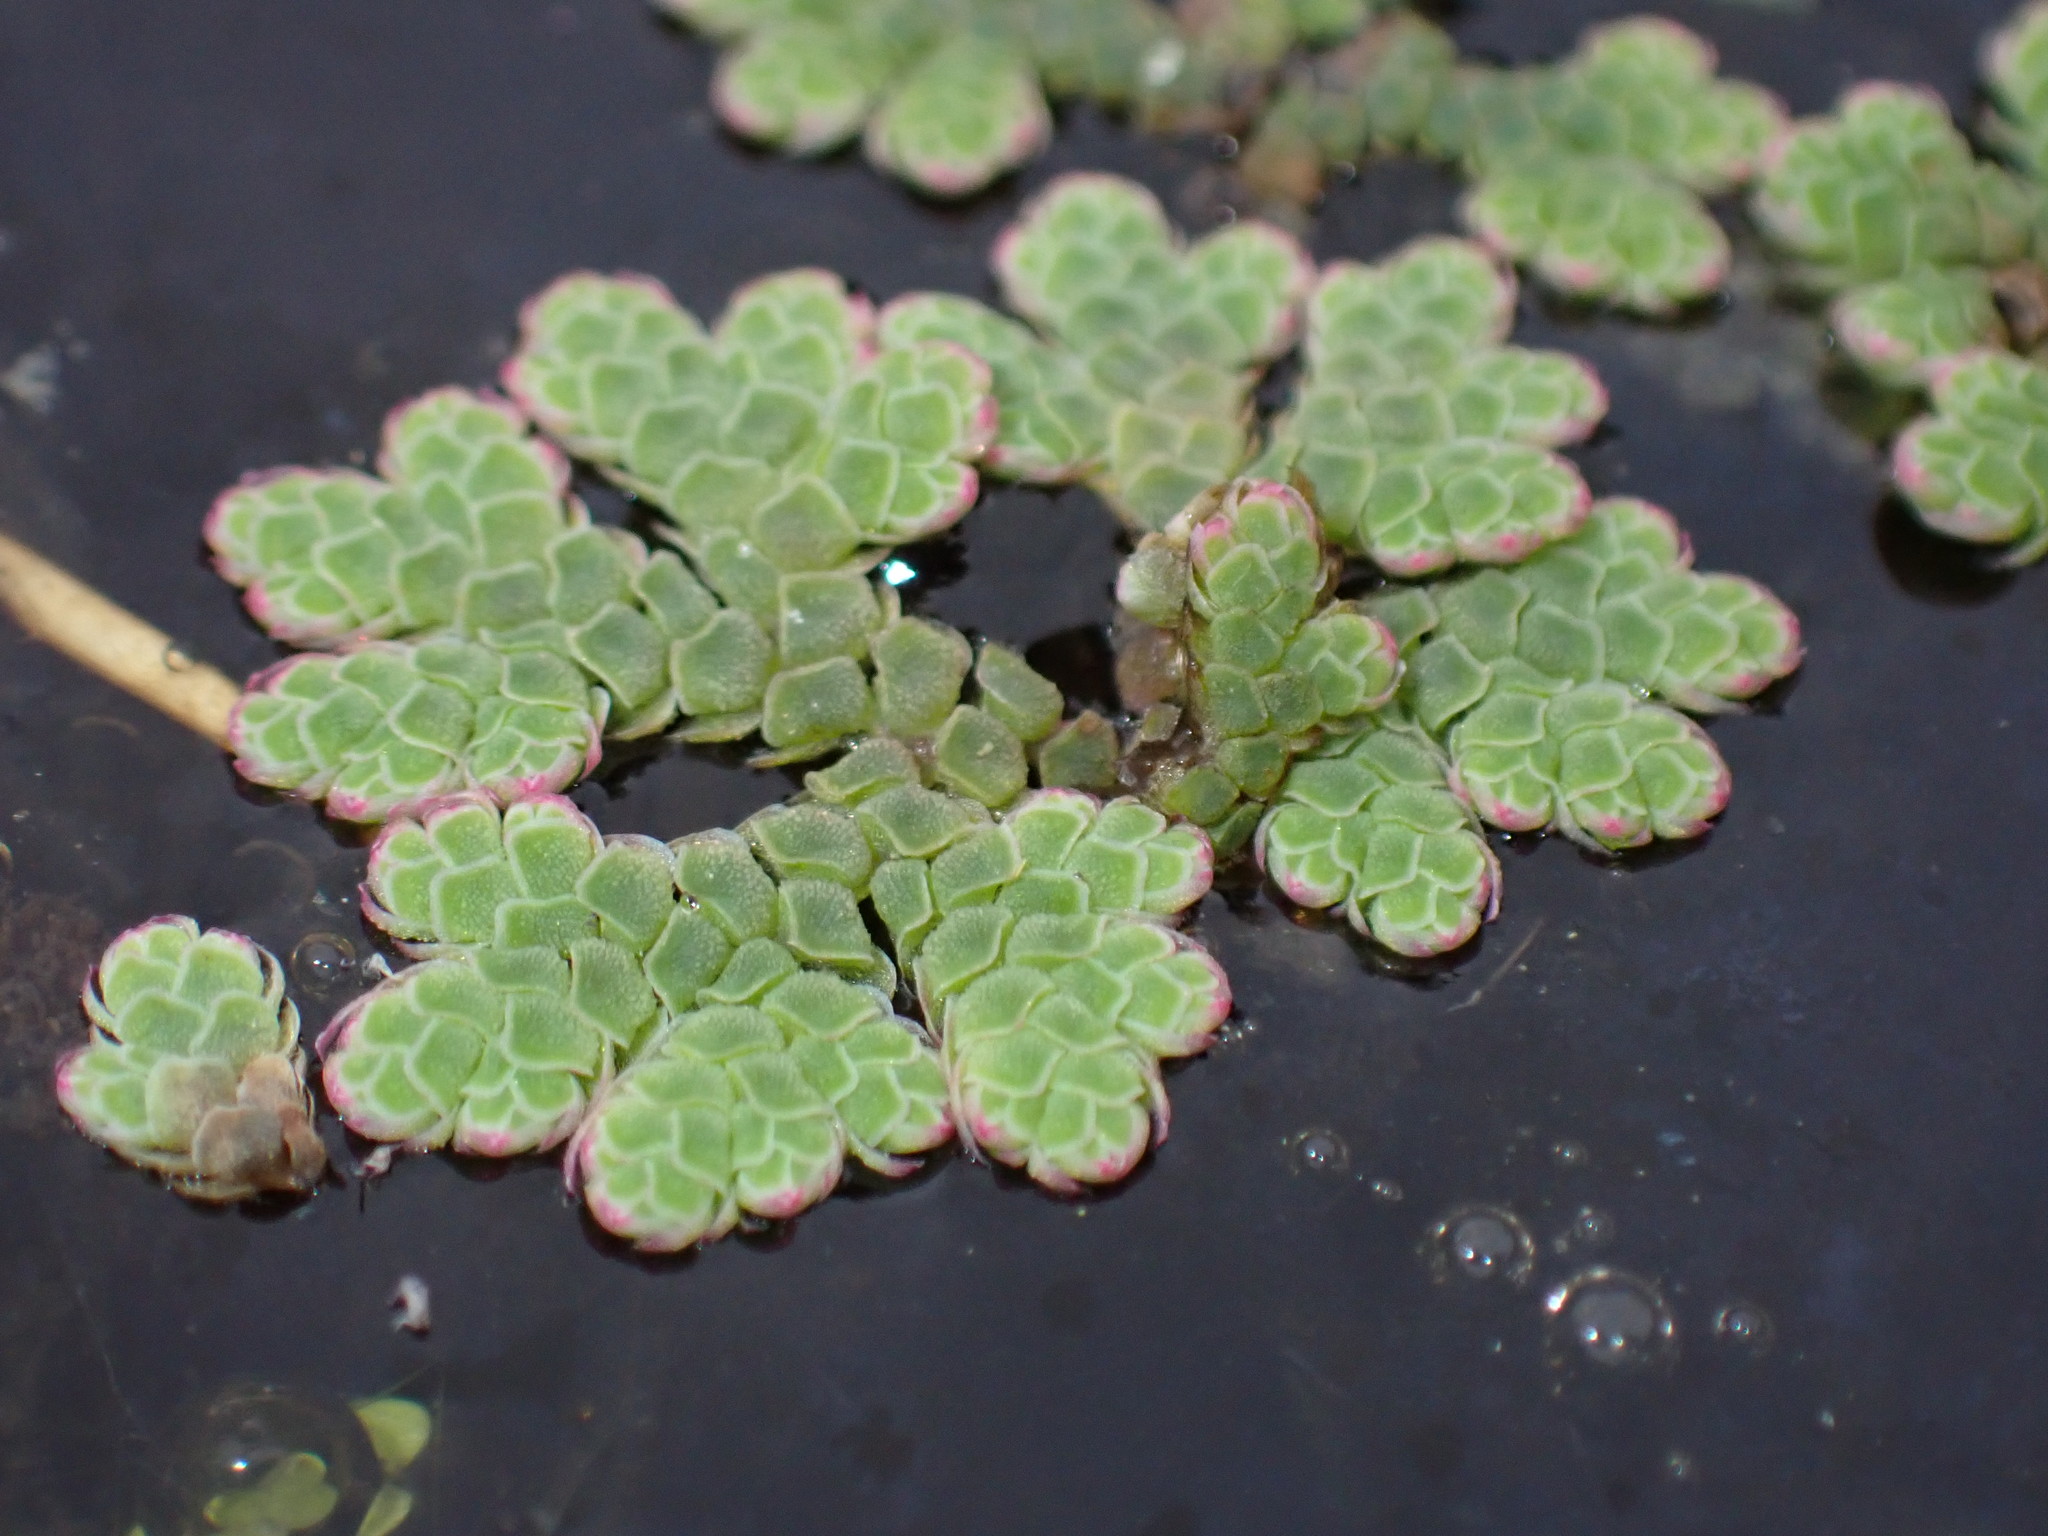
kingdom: Plantae
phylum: Tracheophyta
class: Polypodiopsida
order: Salviniales
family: Salviniaceae
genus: Azolla
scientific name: Azolla rubra
